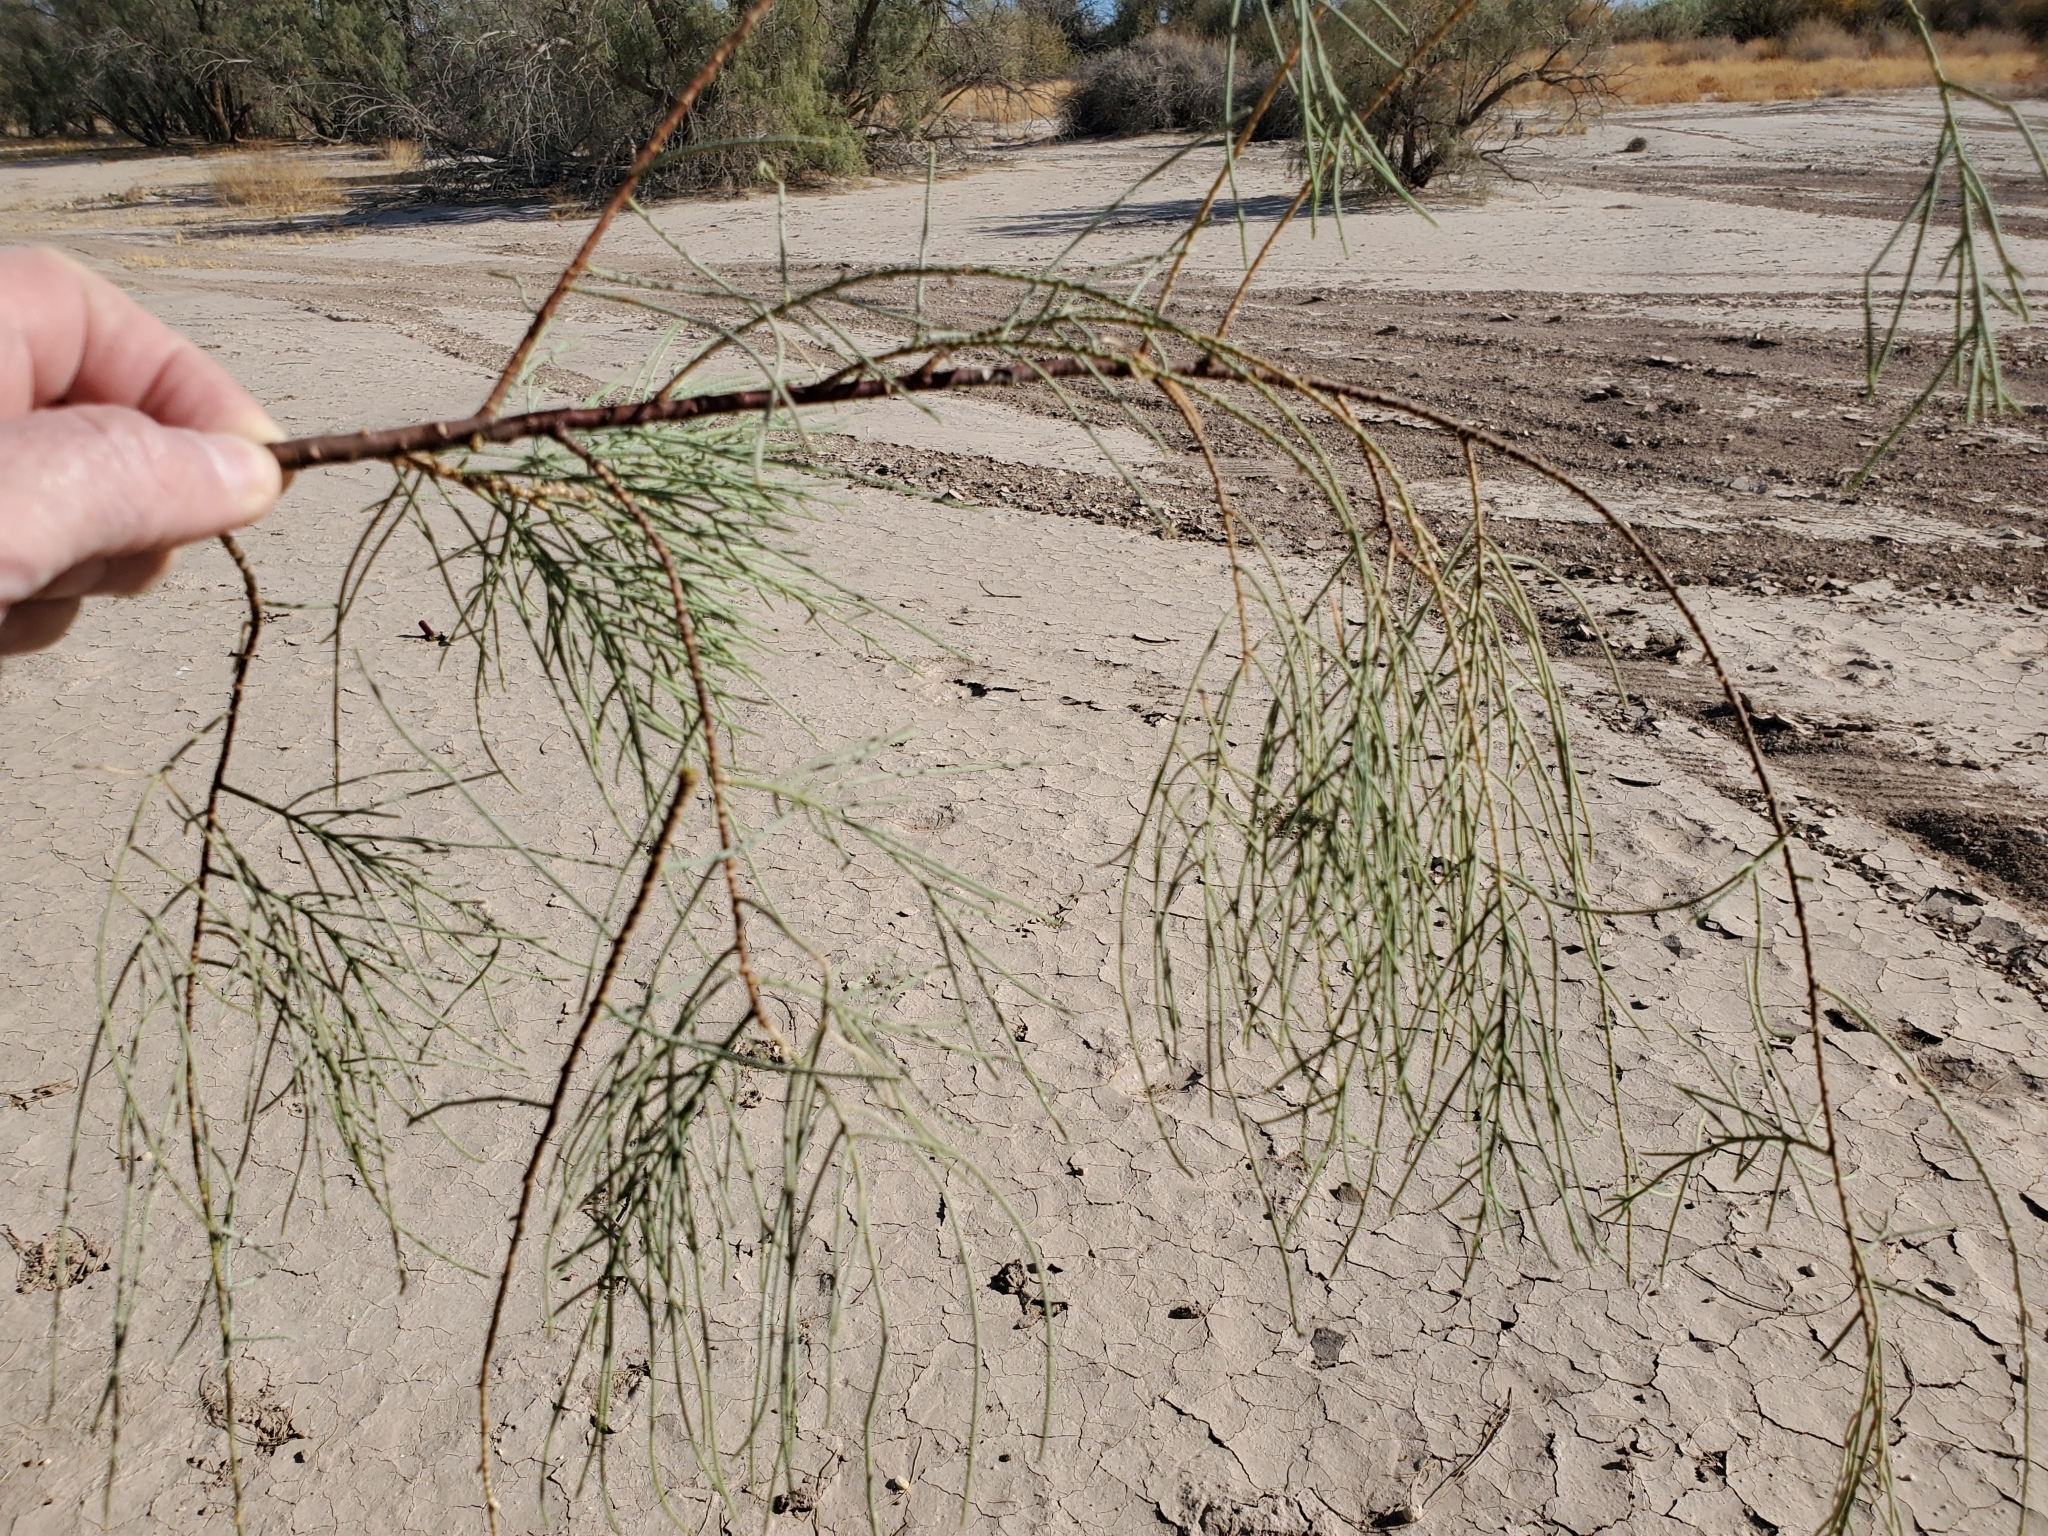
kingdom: Plantae
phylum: Tracheophyta
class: Magnoliopsida
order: Caryophyllales
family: Tamaricaceae
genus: Tamarix
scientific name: Tamarix aphylla
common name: Athel tamarisk
